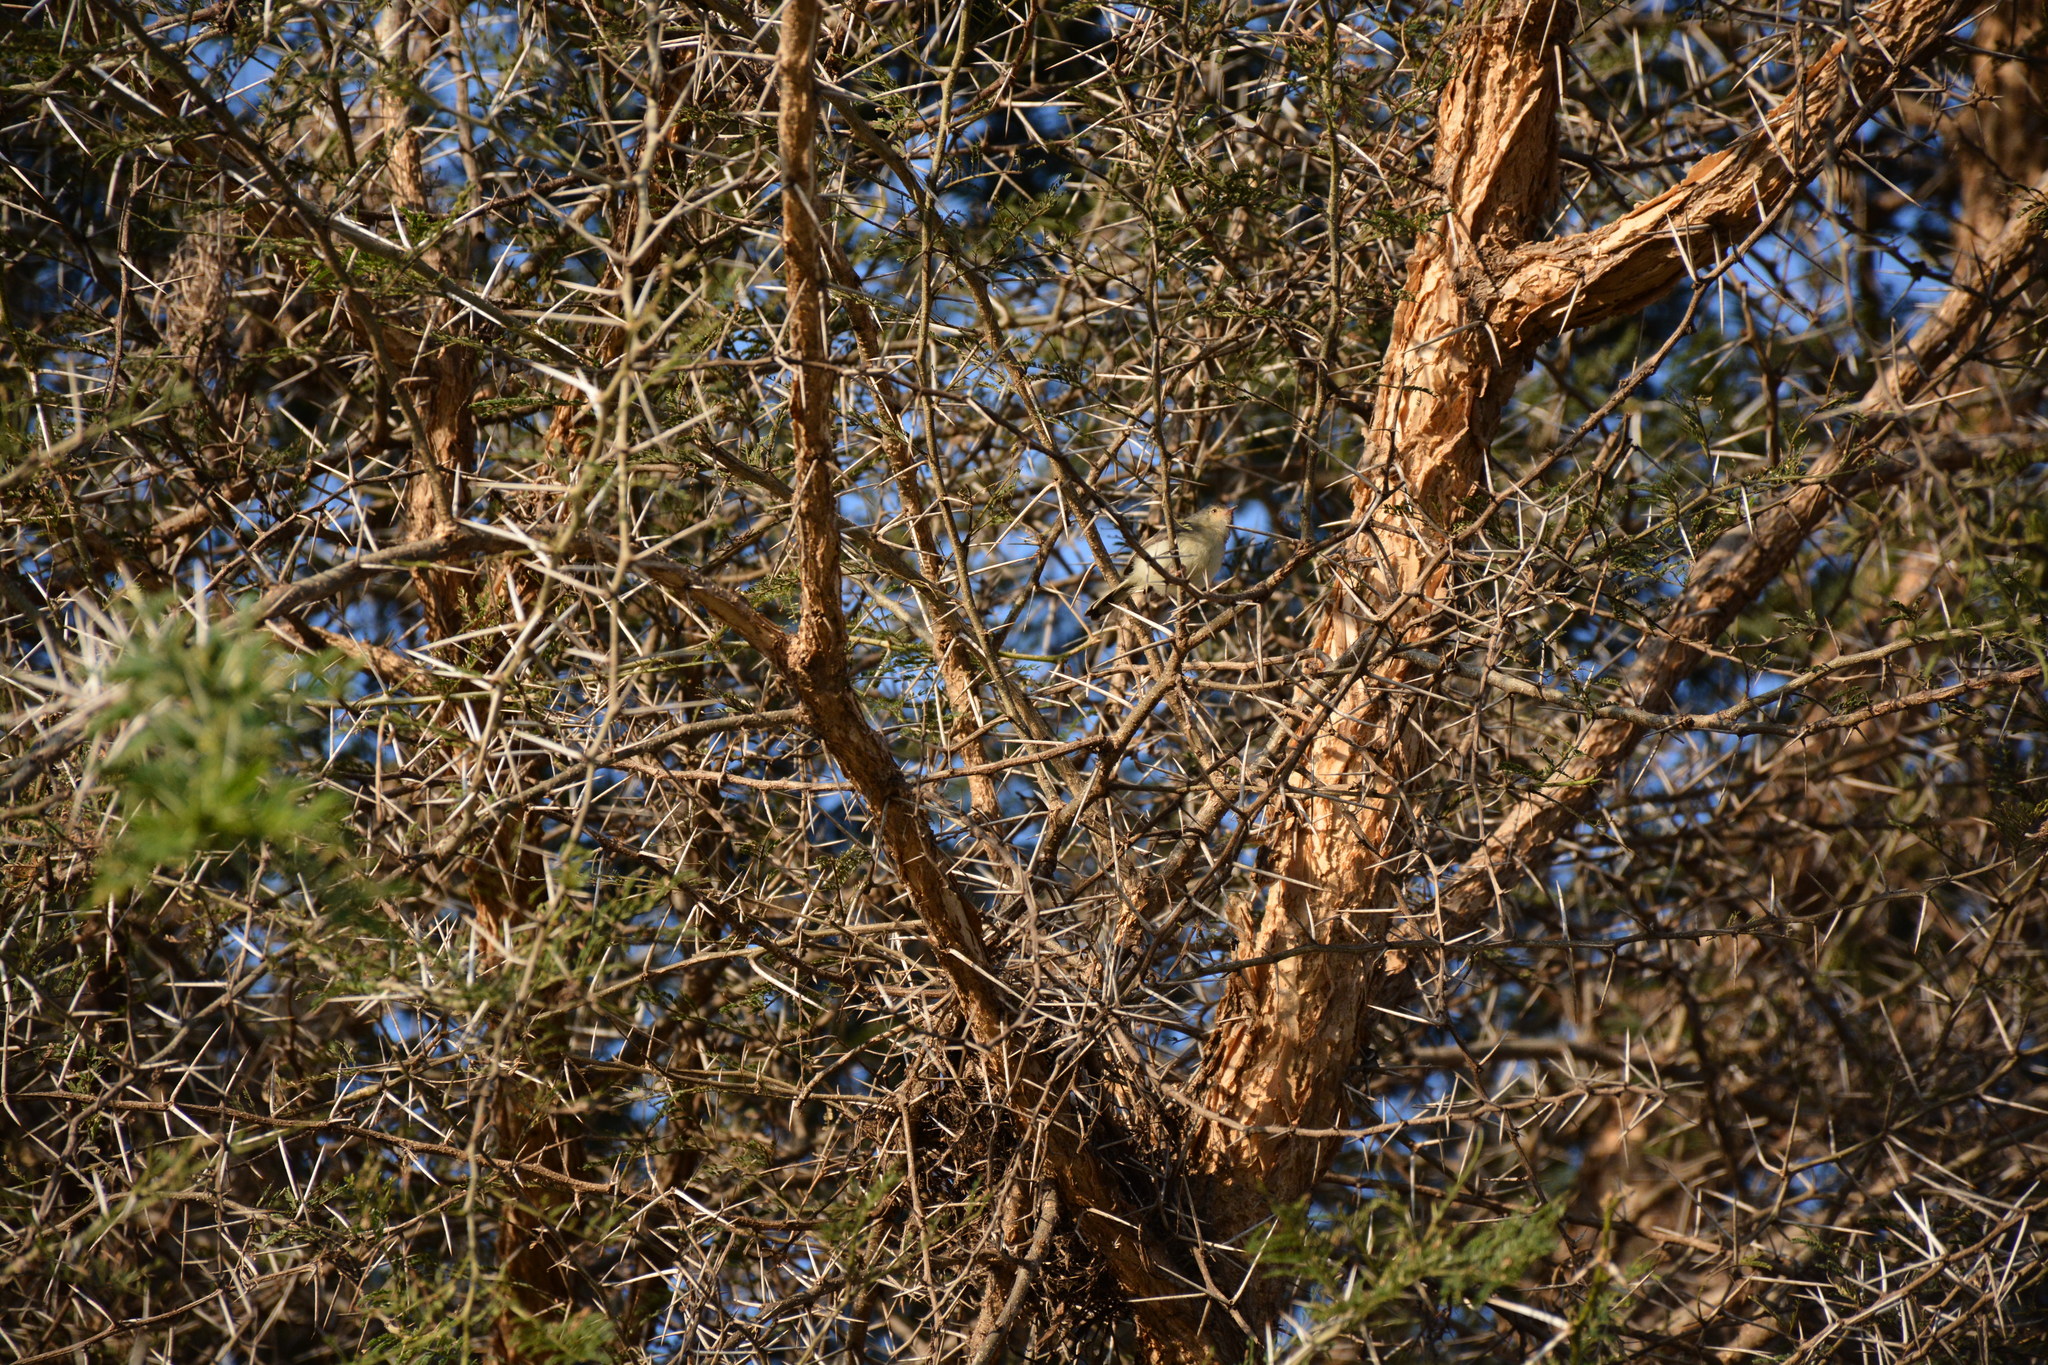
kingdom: Animalia
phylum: Chordata
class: Aves
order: Passeriformes
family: Cisticolidae
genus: Phyllolais
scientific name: Phyllolais pulchella
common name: Buff-bellied warbler
